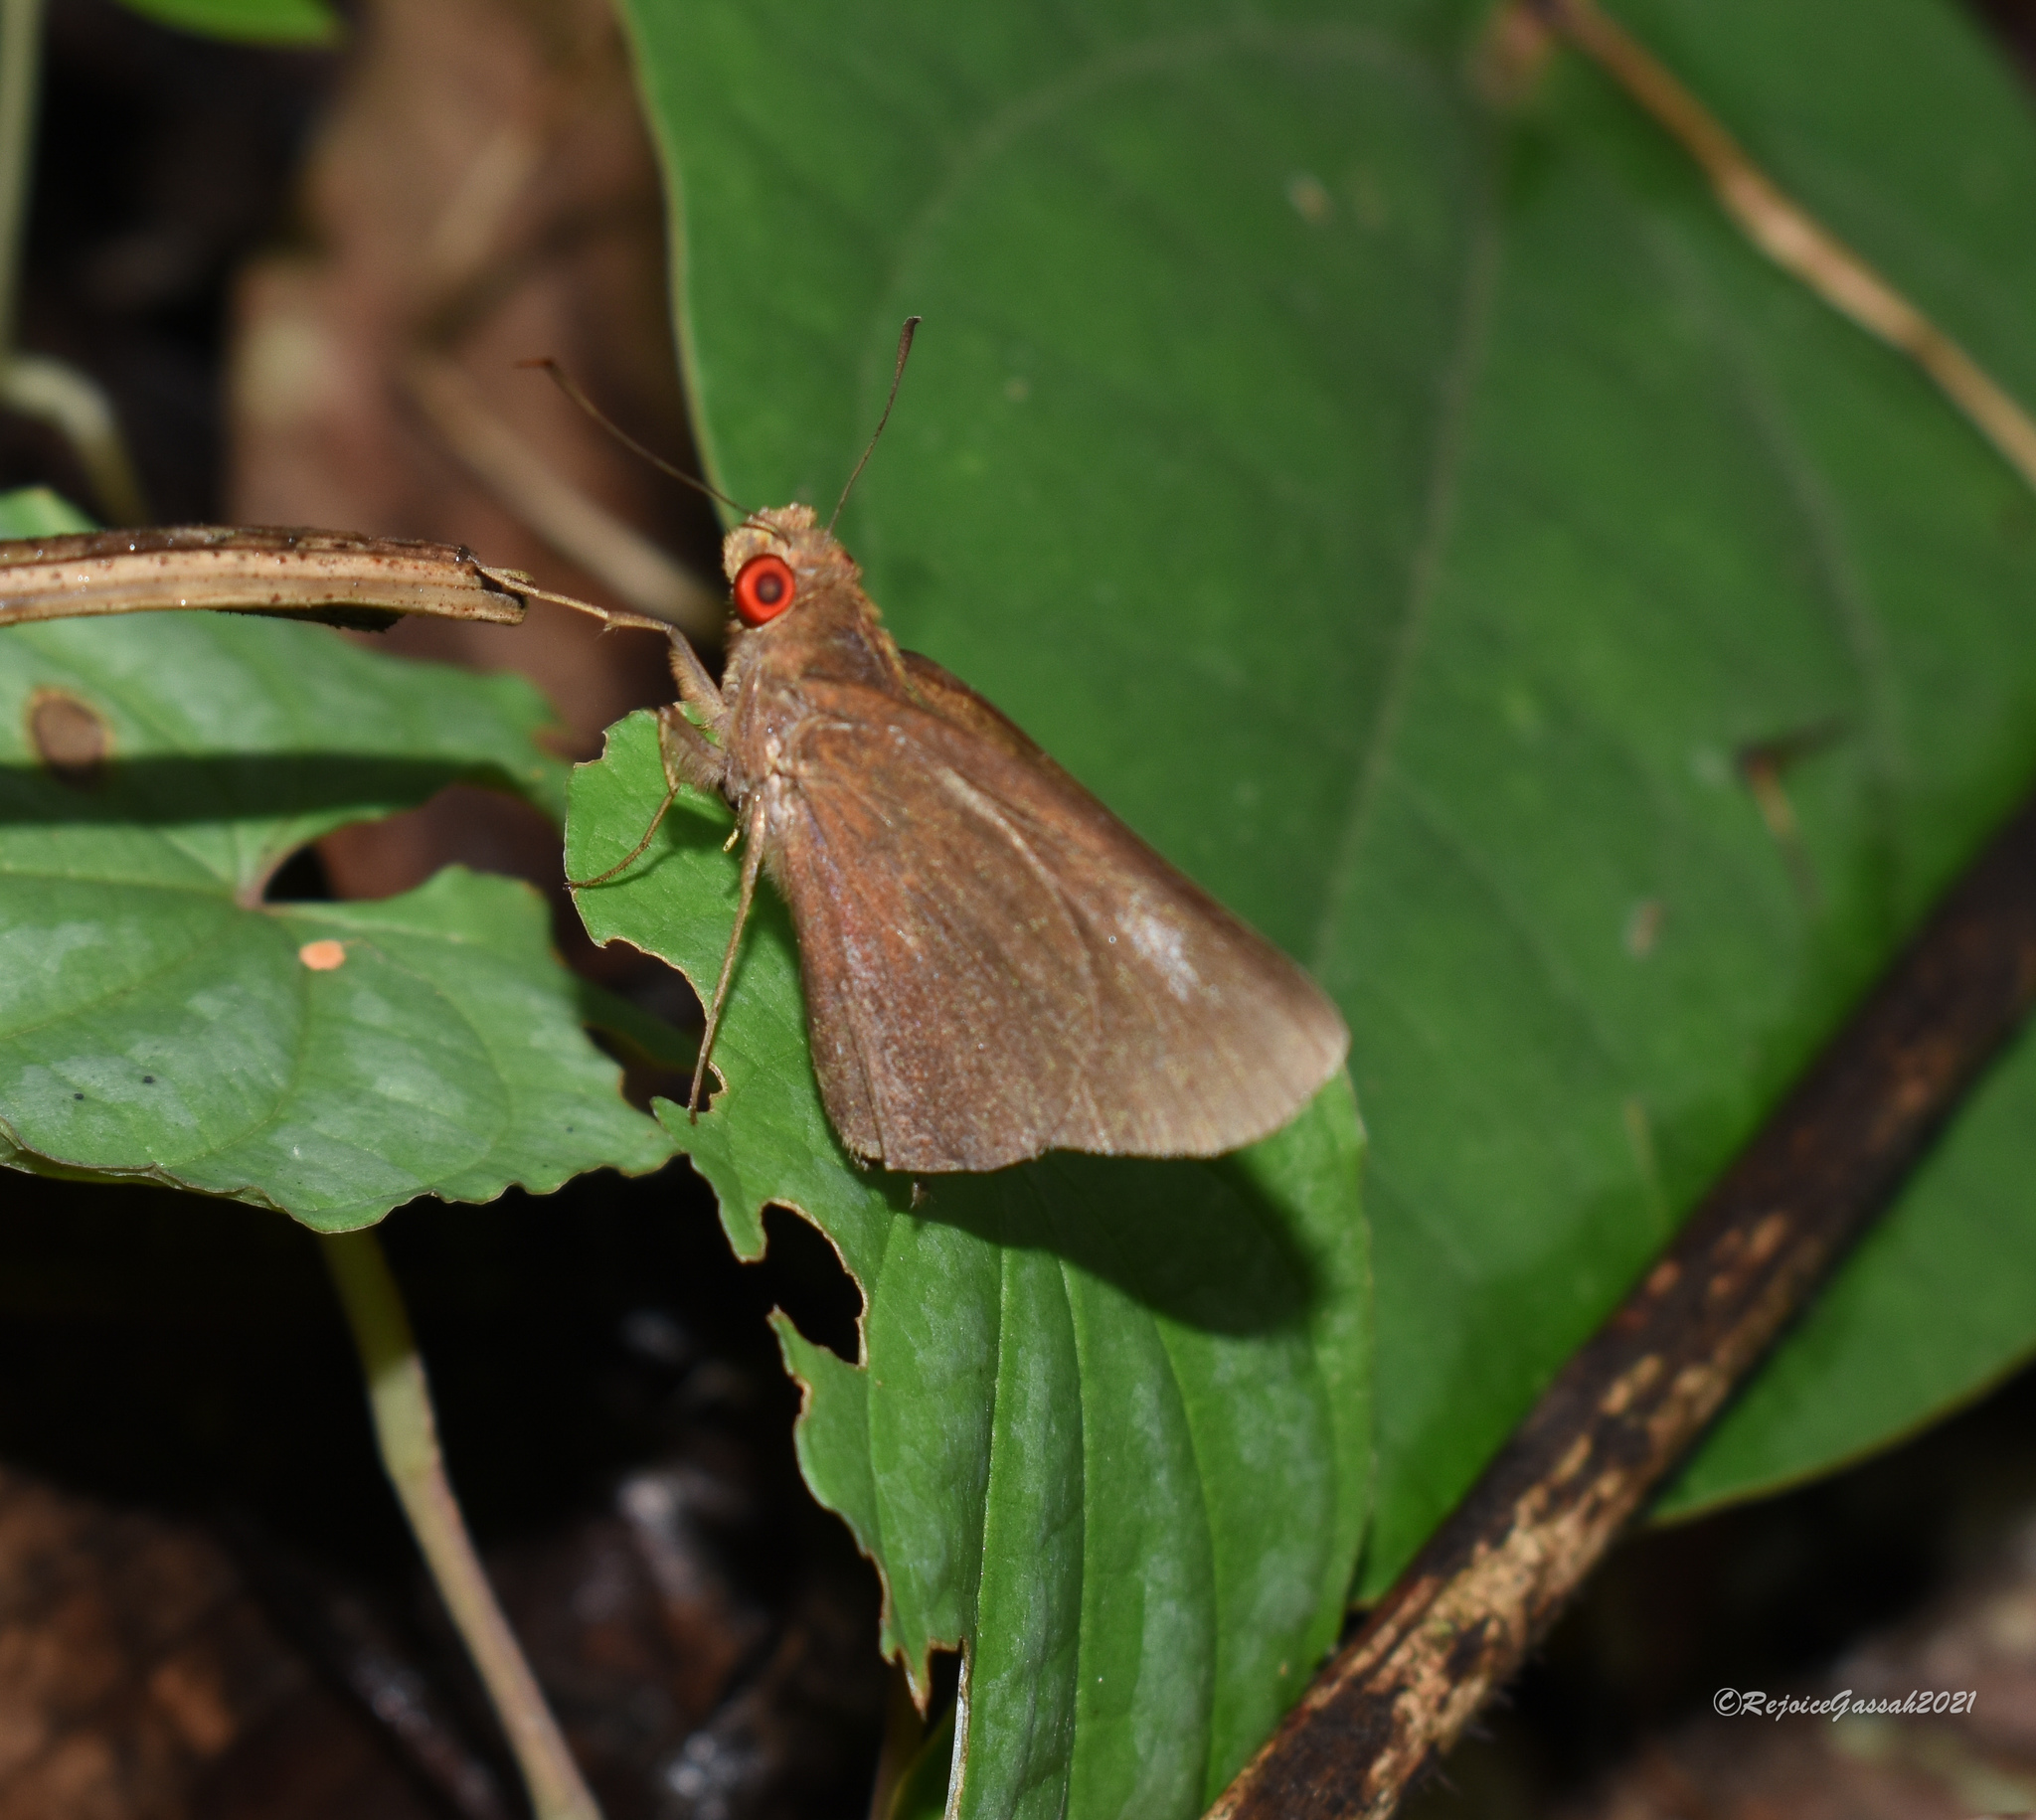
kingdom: Animalia
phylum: Arthropoda
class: Insecta
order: Lepidoptera
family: Hesperiidae
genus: Matapa
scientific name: Matapa aria
